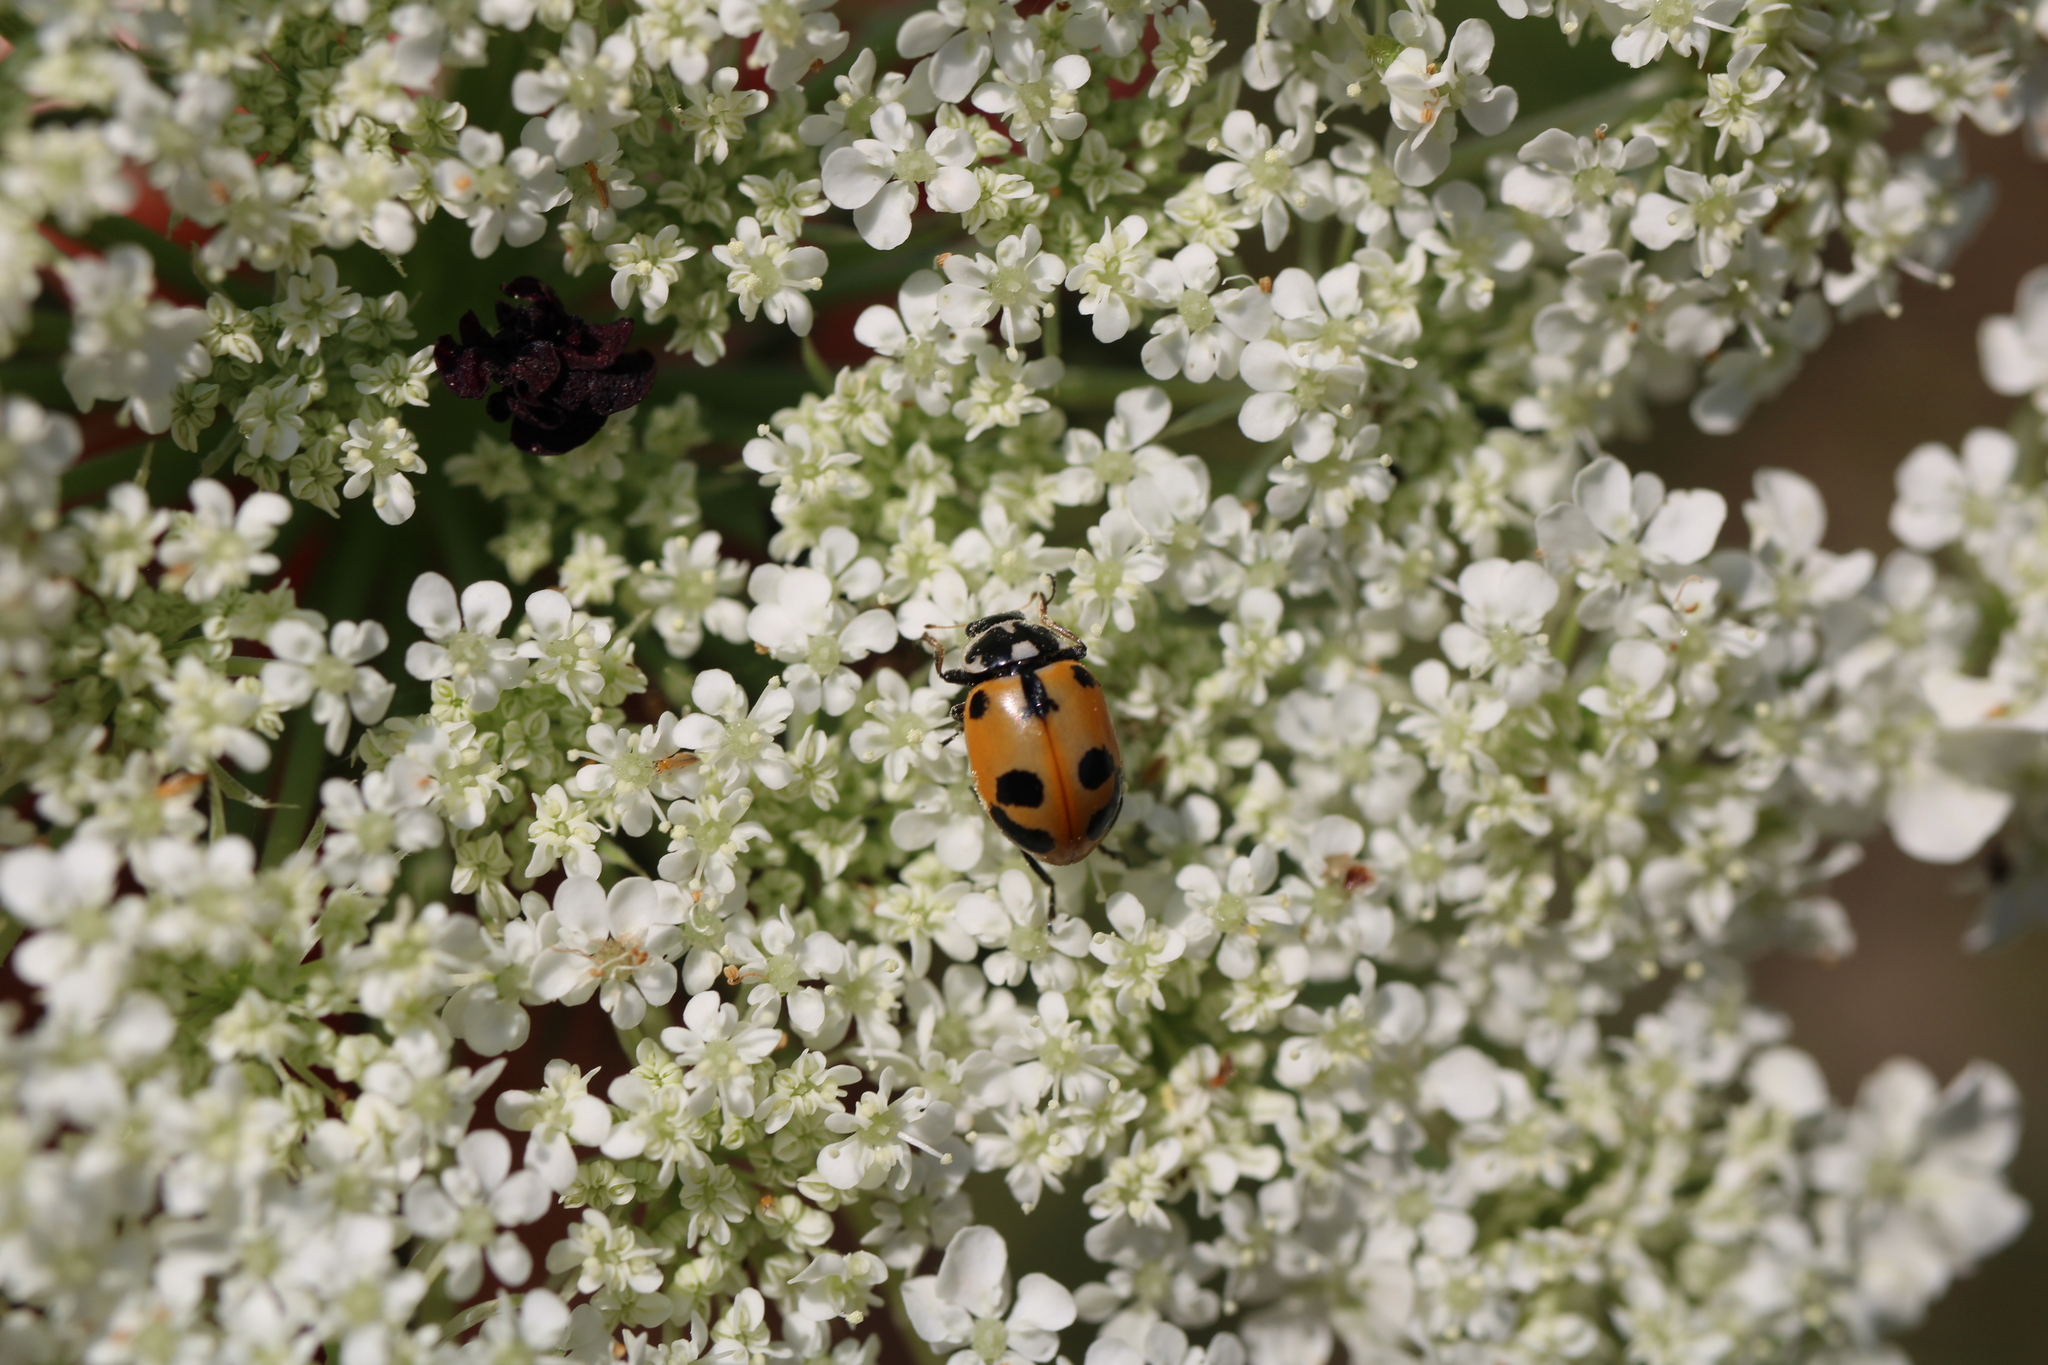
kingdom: Animalia
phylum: Arthropoda
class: Insecta
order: Coleoptera
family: Coccinellidae
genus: Hippodamia
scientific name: Hippodamia parenthesis
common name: Parenthesis lady beetle
